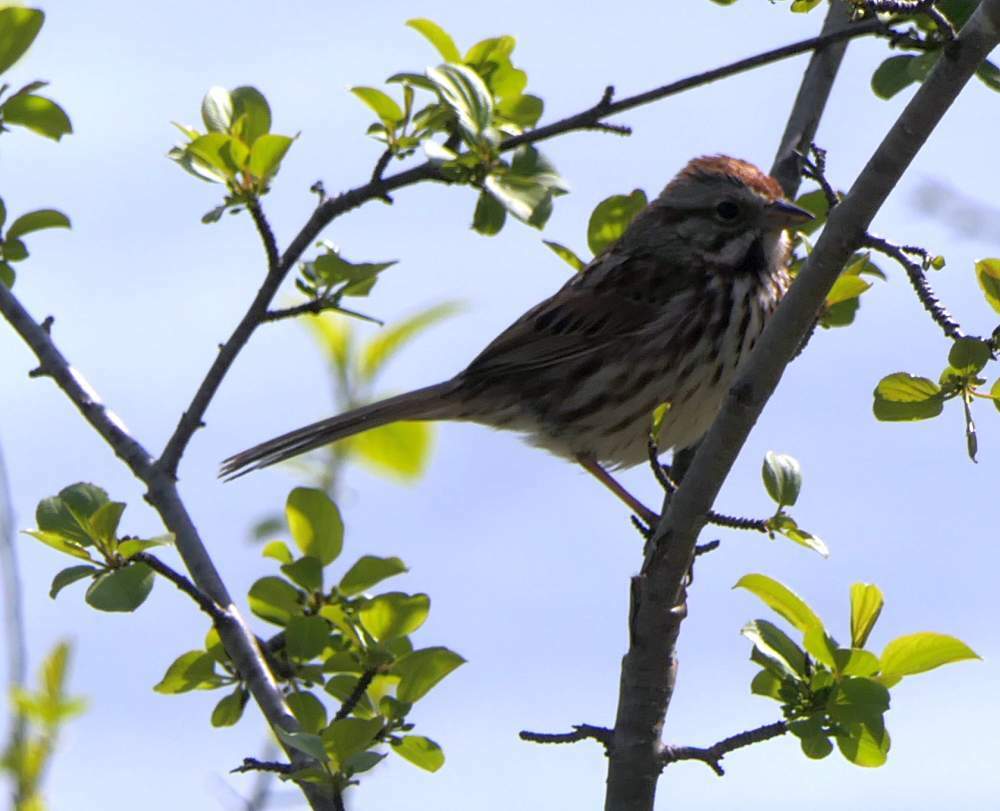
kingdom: Animalia
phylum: Chordata
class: Aves
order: Passeriformes
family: Passerellidae
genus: Melospiza
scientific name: Melospiza melodia
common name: Song sparrow
